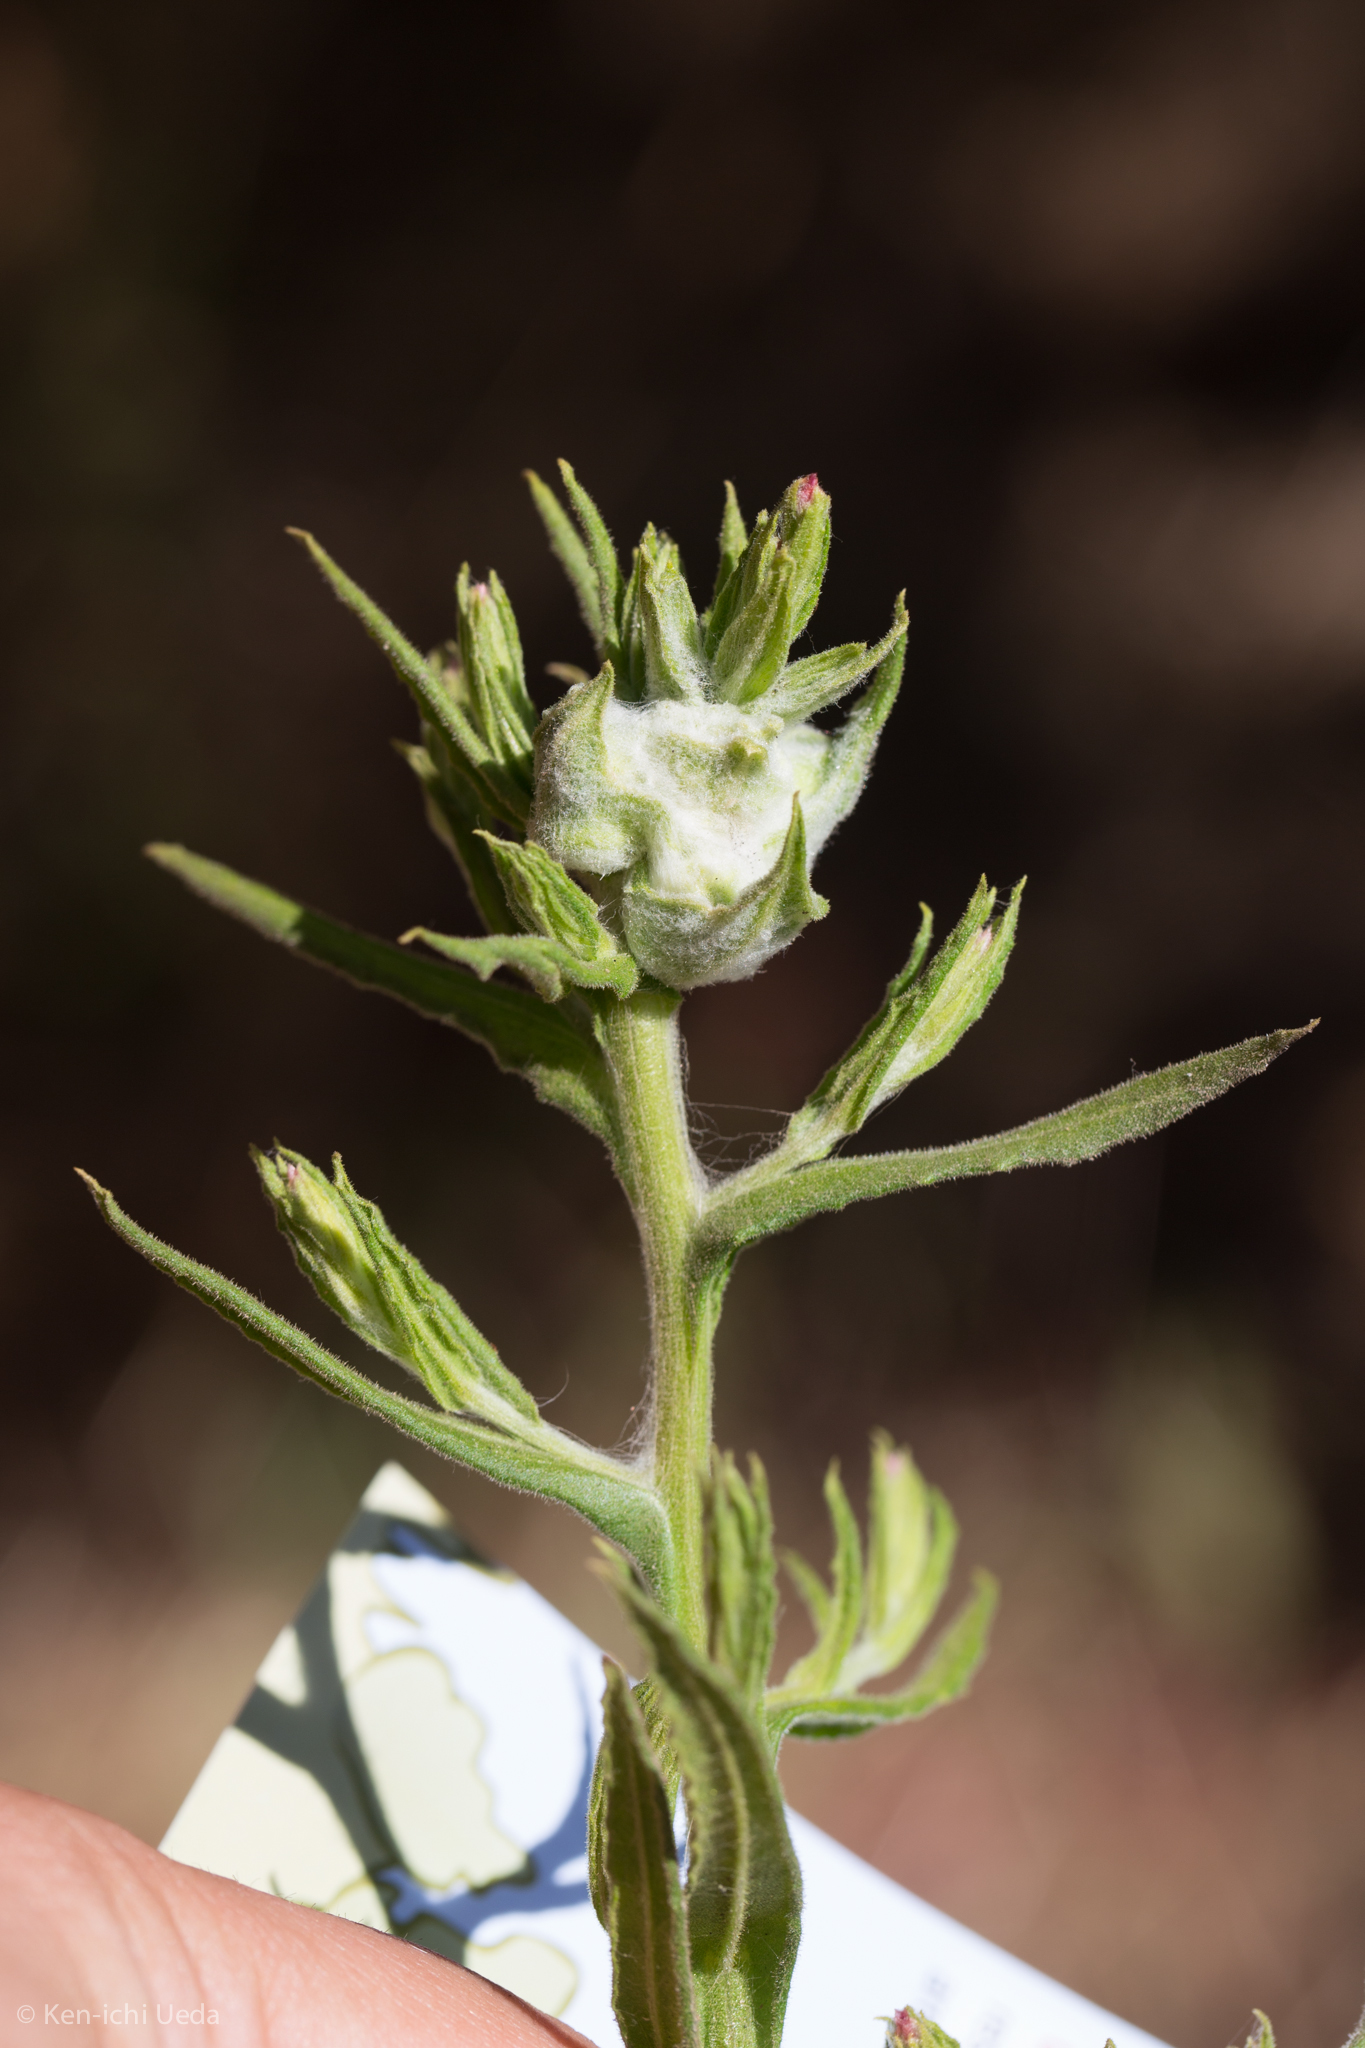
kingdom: Animalia
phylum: Arthropoda
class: Insecta
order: Diptera
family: Tephritidae
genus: Trupanea
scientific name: Trupanea signata
